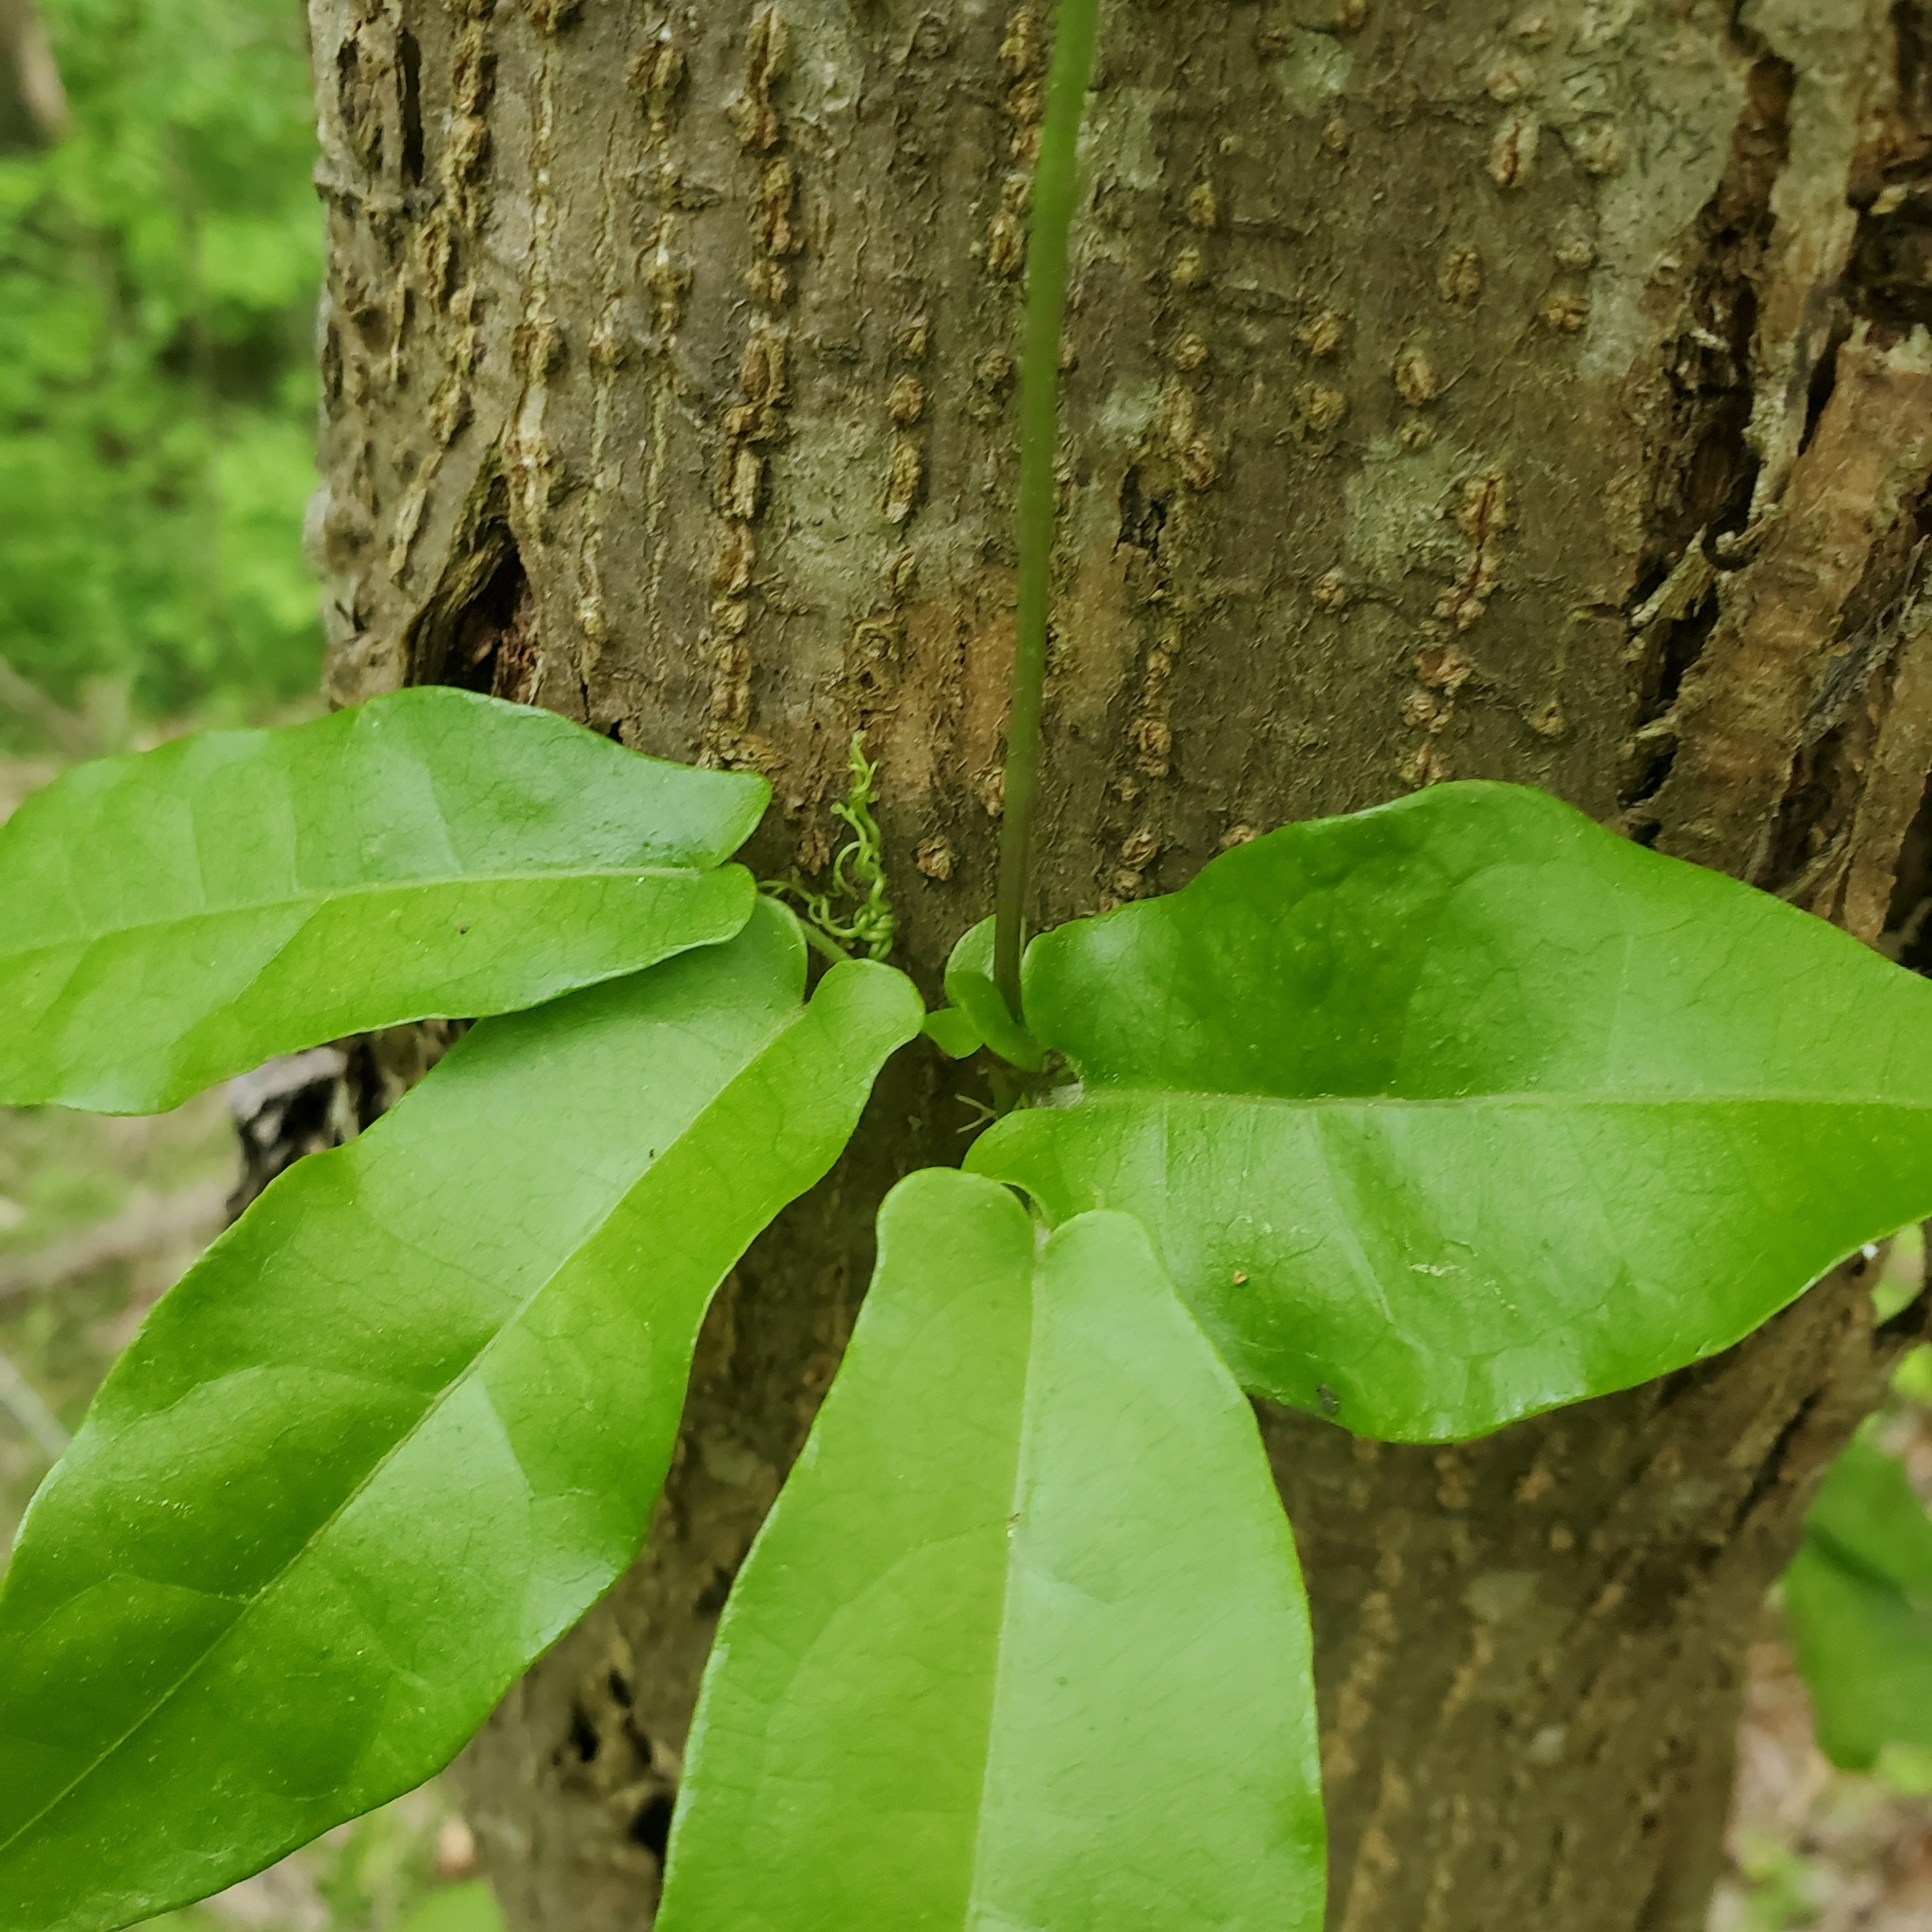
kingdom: Plantae
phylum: Tracheophyta
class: Magnoliopsida
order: Lamiales
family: Bignoniaceae
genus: Bignonia
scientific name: Bignonia capreolata
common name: Crossvine
